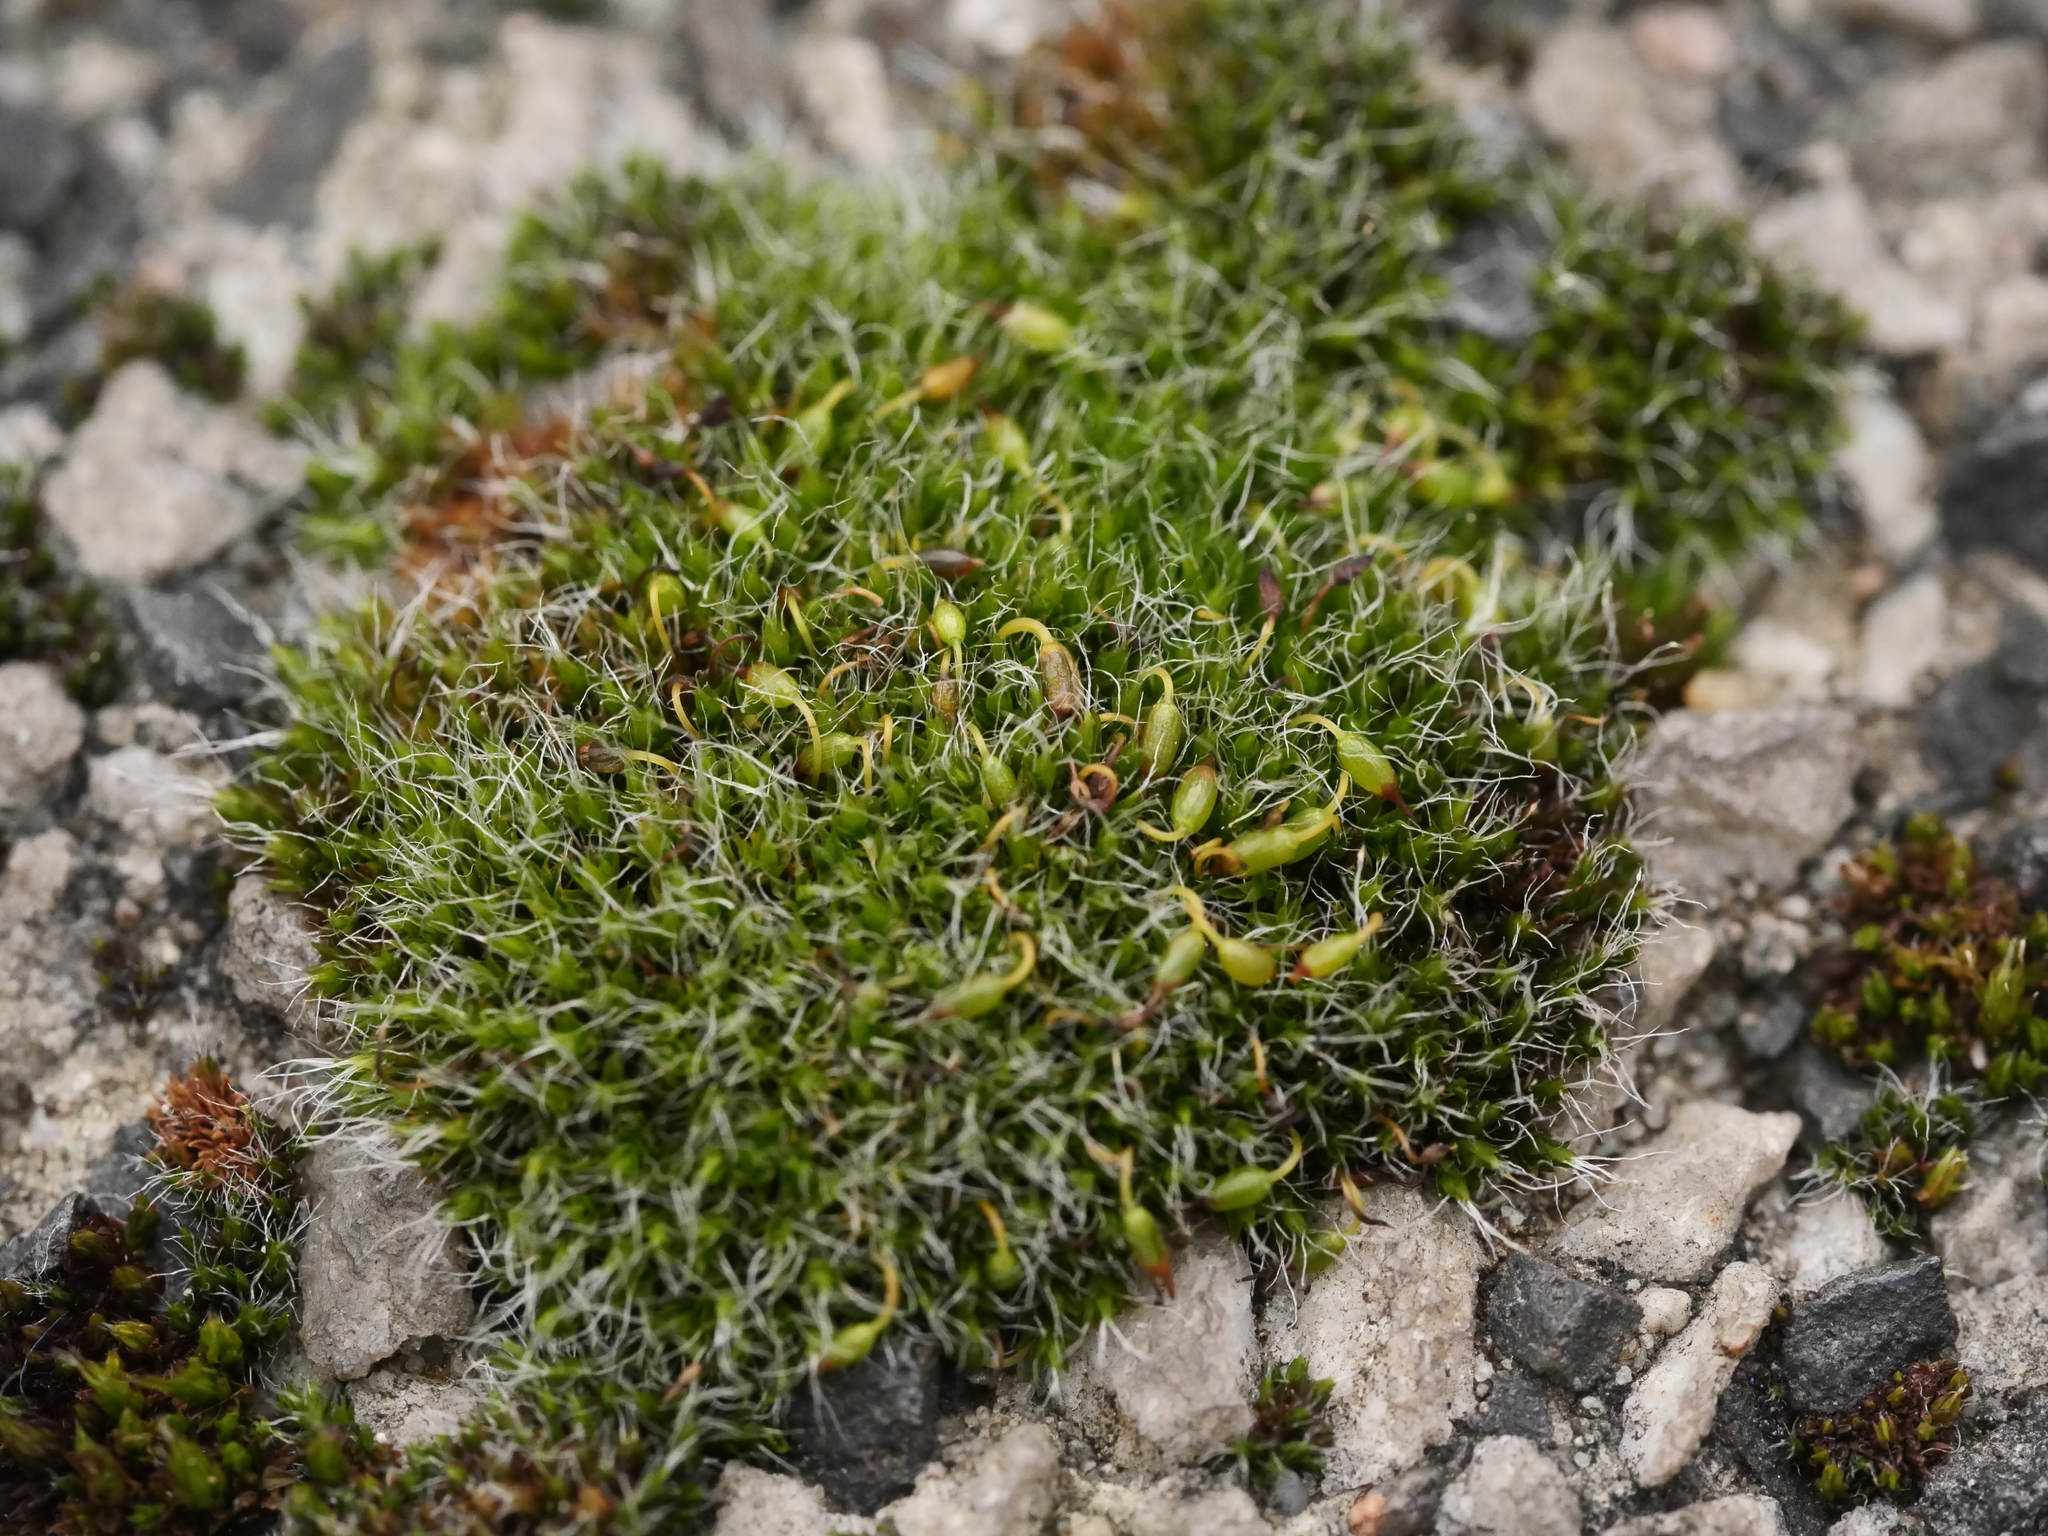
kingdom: Plantae
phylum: Bryophyta
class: Bryopsida
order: Grimmiales
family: Grimmiaceae
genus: Grimmia
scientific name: Grimmia pulvinata
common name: Grey-cushioned grimmia
